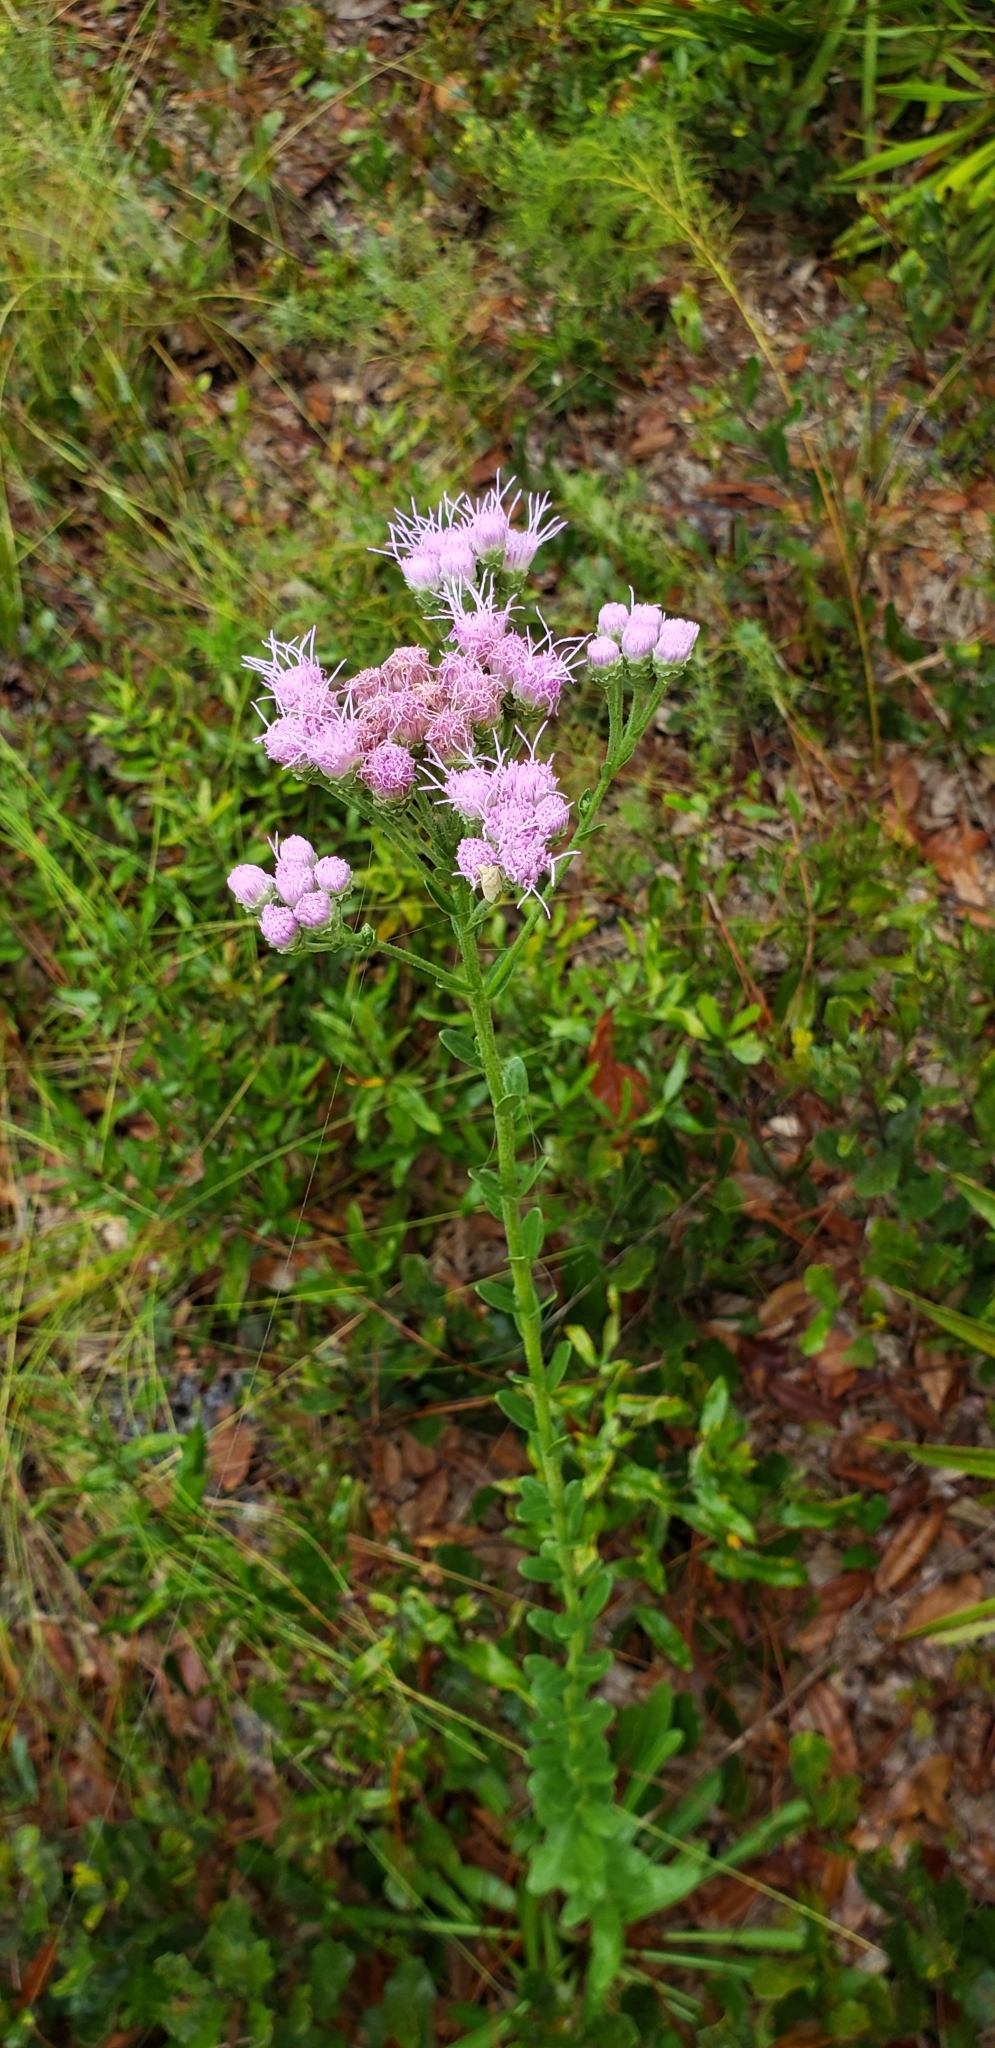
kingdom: Plantae
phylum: Tracheophyta
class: Magnoliopsida
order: Asterales
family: Asteraceae
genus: Carphephorus
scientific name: Carphephorus corymbosus
